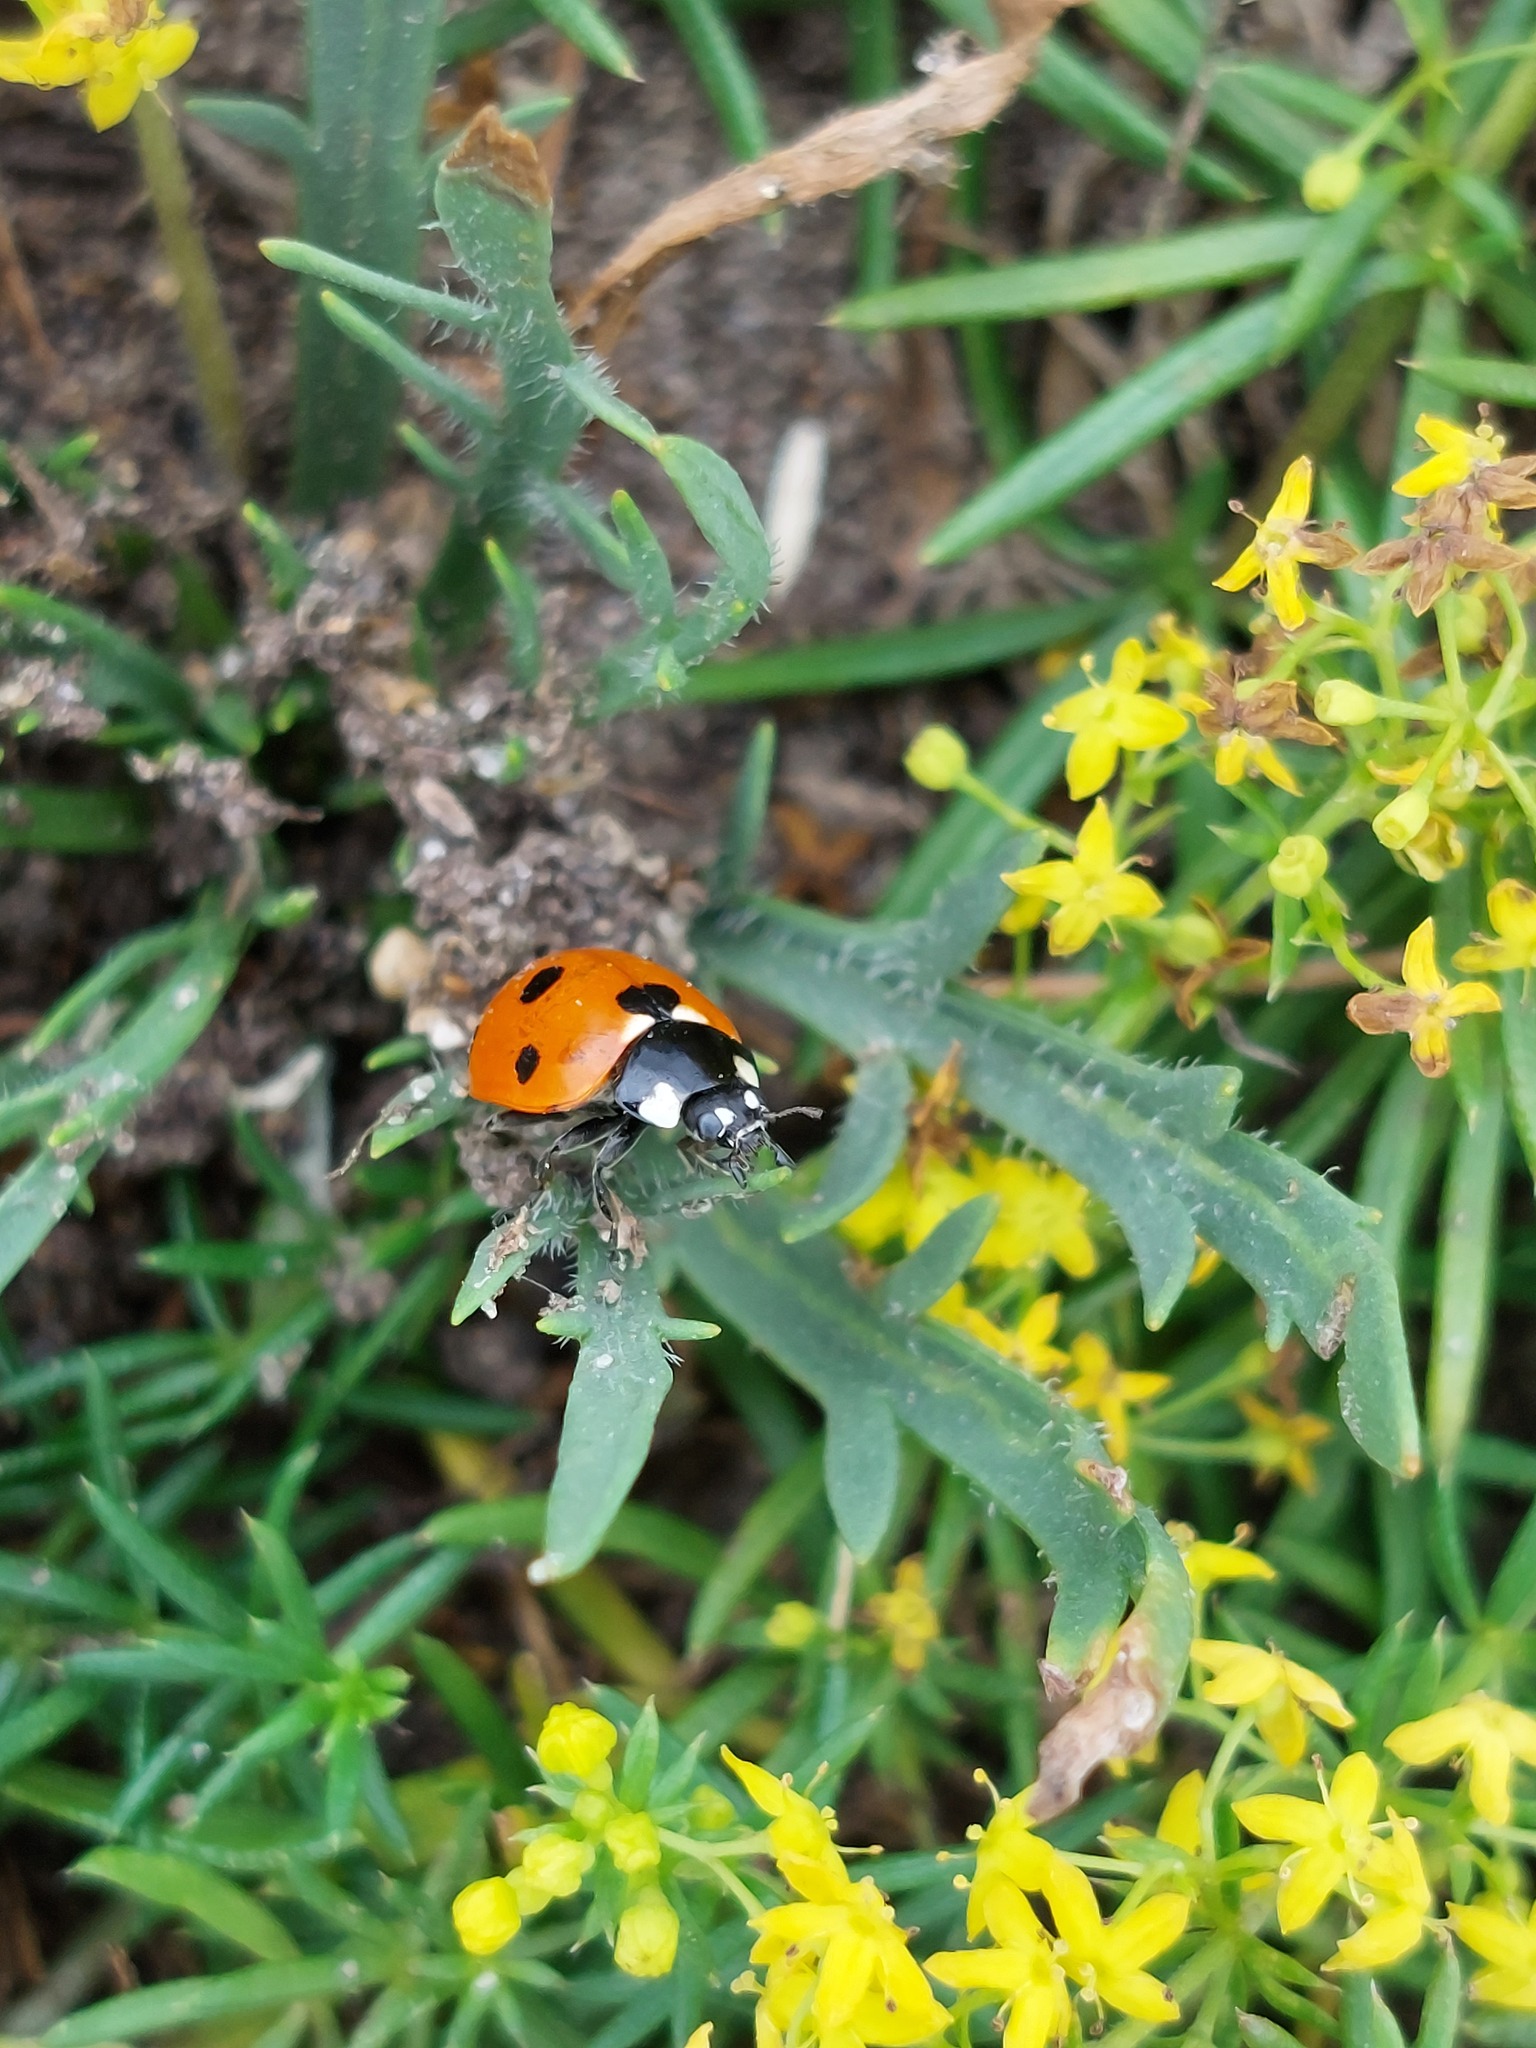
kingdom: Animalia
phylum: Arthropoda
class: Insecta
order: Coleoptera
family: Coccinellidae
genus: Coccinella
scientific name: Coccinella septempunctata
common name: Sevenspotted lady beetle
